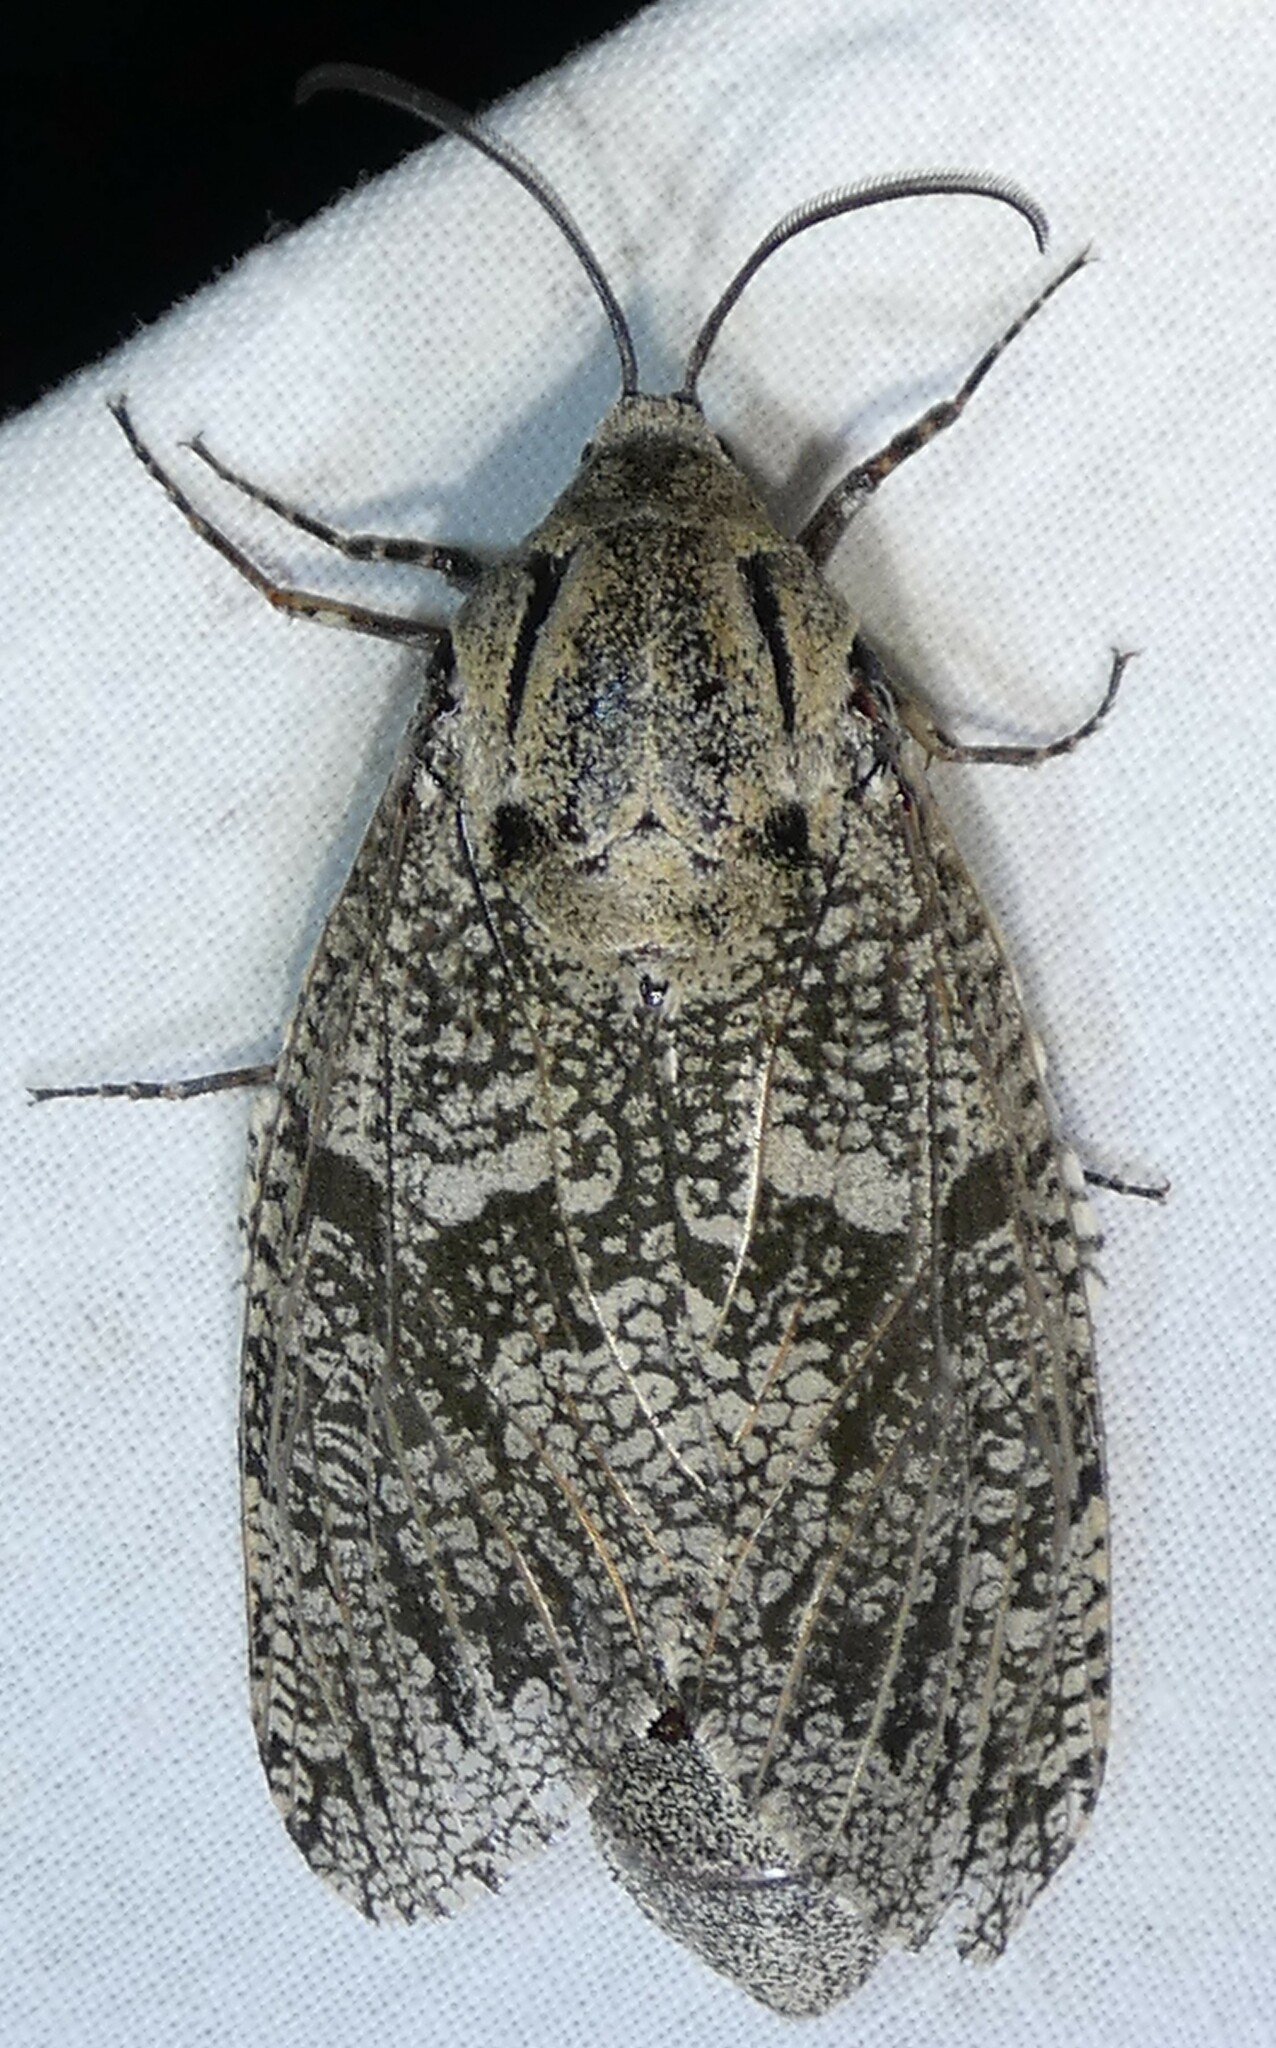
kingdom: Animalia
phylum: Arthropoda
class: Insecta
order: Lepidoptera
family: Cossidae
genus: Prionoxystus
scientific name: Prionoxystus robiniae
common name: Carpenterworm
